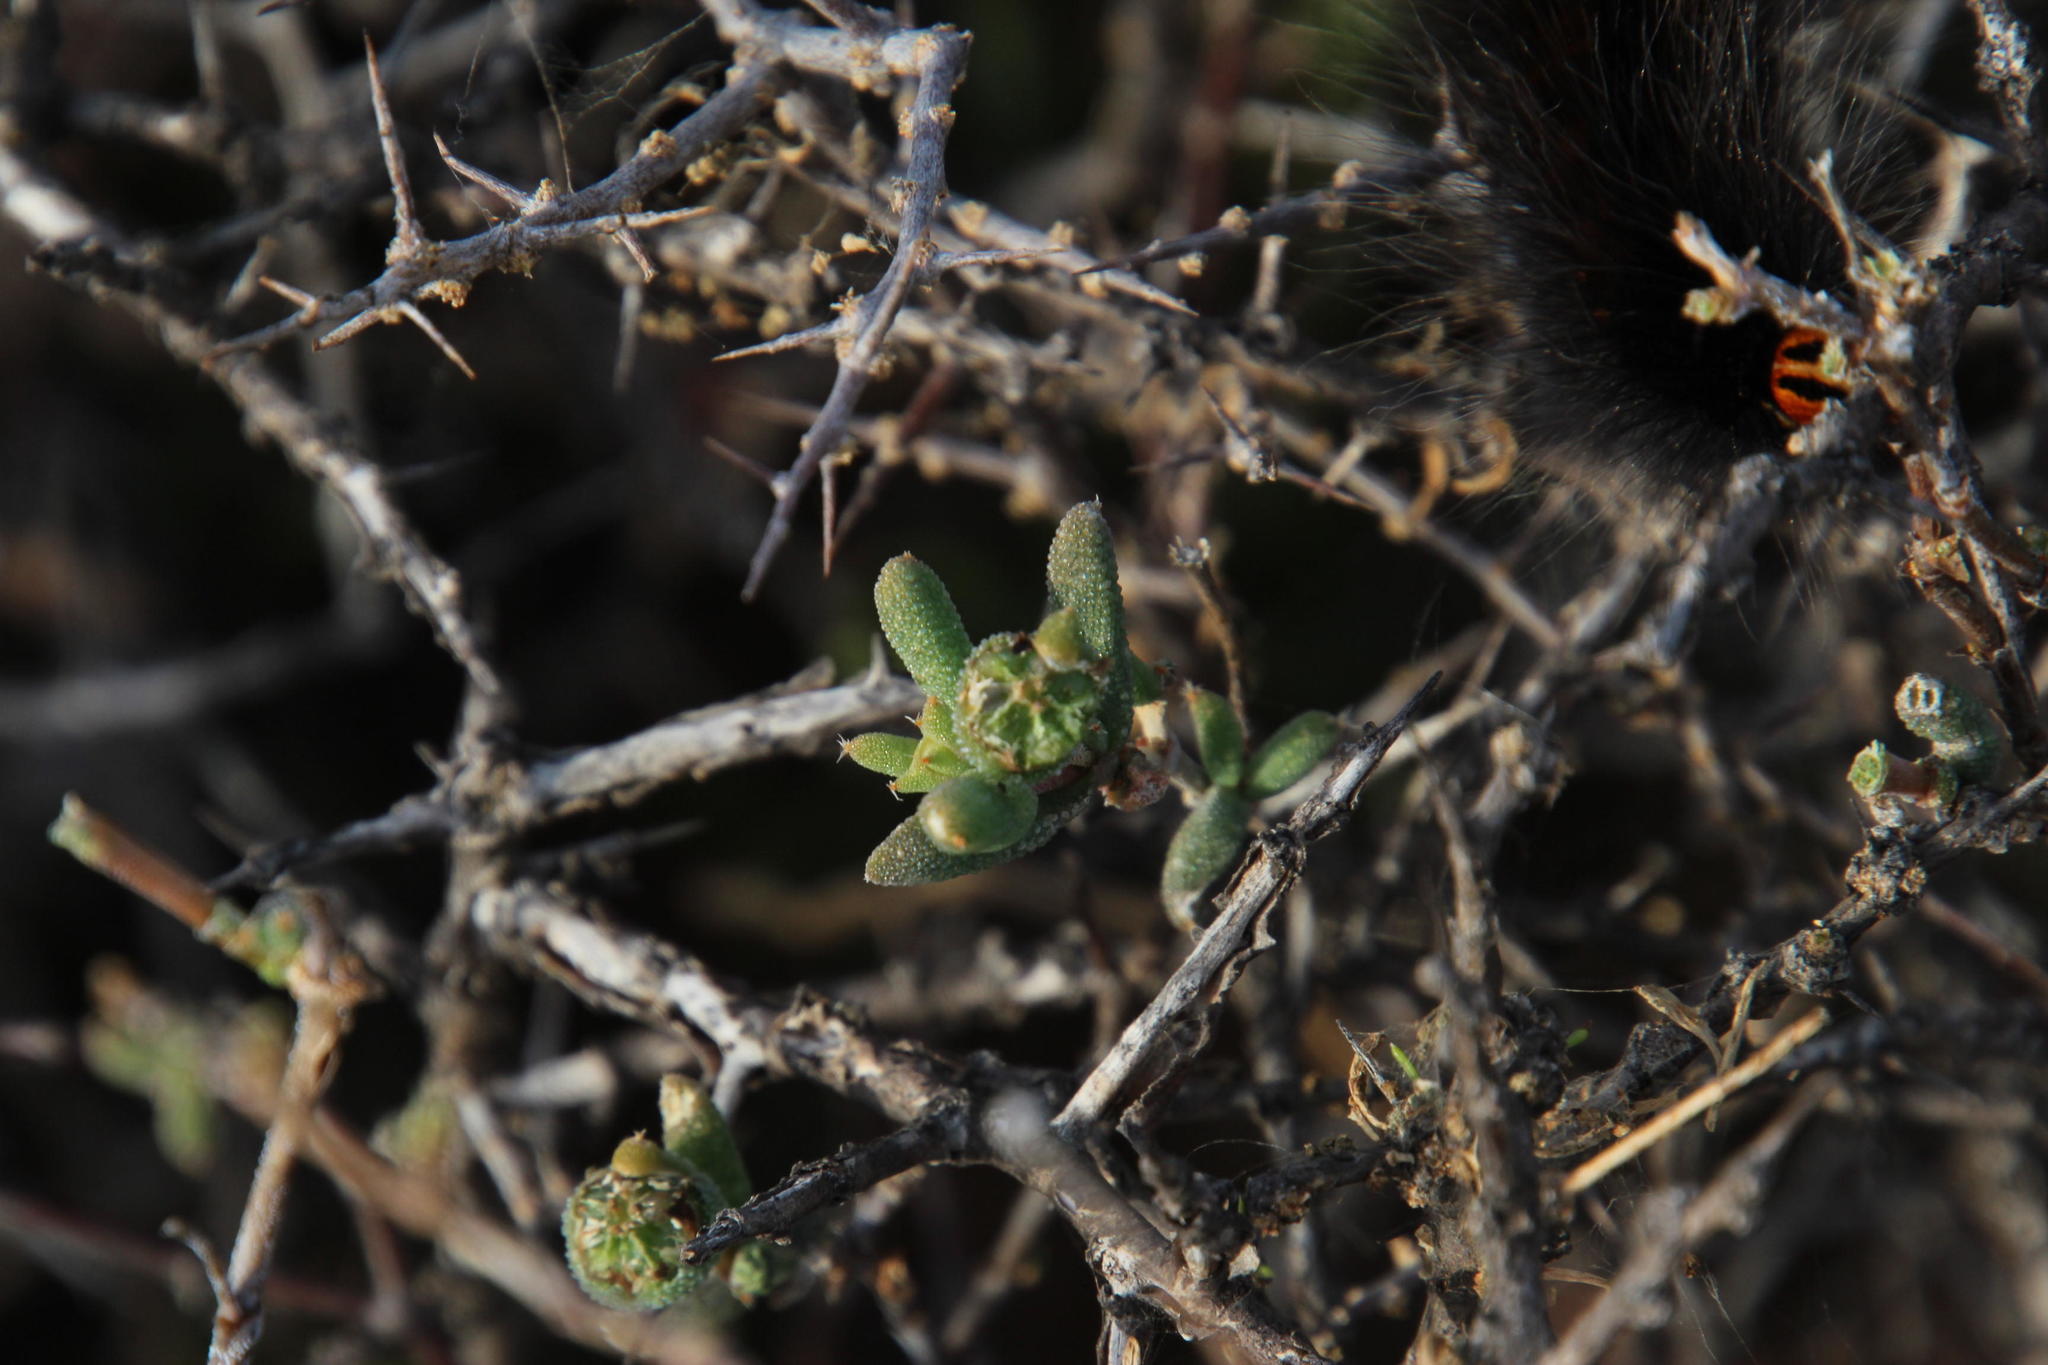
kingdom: Animalia
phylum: Arthropoda
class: Insecta
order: Lepidoptera
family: Lasiocampidae
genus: Mesocelis
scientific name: Mesocelis monticola
